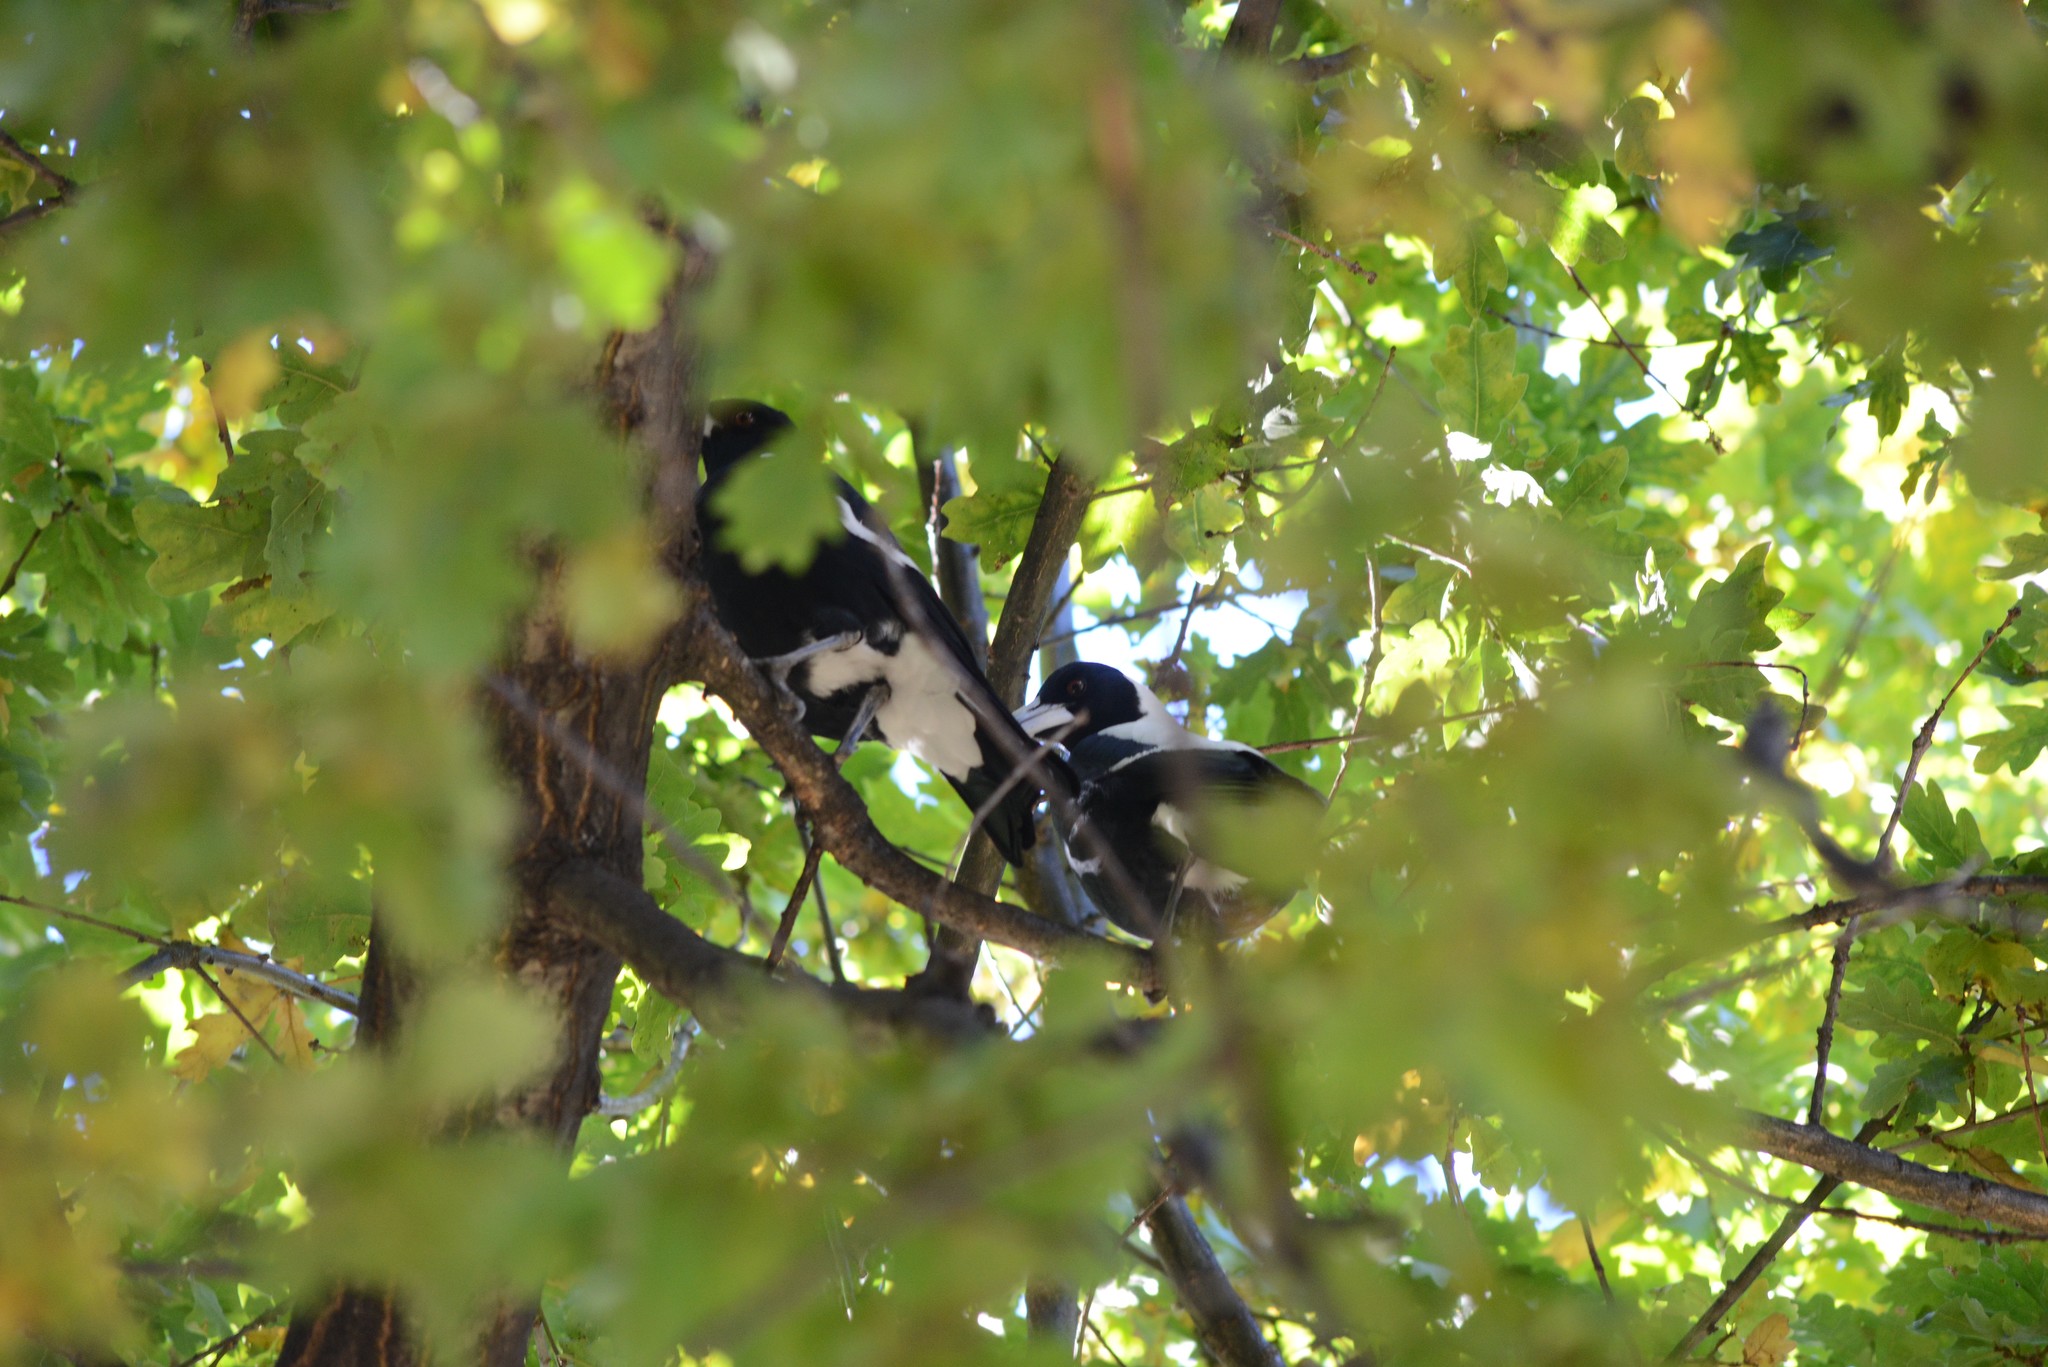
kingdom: Animalia
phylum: Chordata
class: Aves
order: Passeriformes
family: Cracticidae
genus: Gymnorhina
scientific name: Gymnorhina tibicen
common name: Australian magpie
